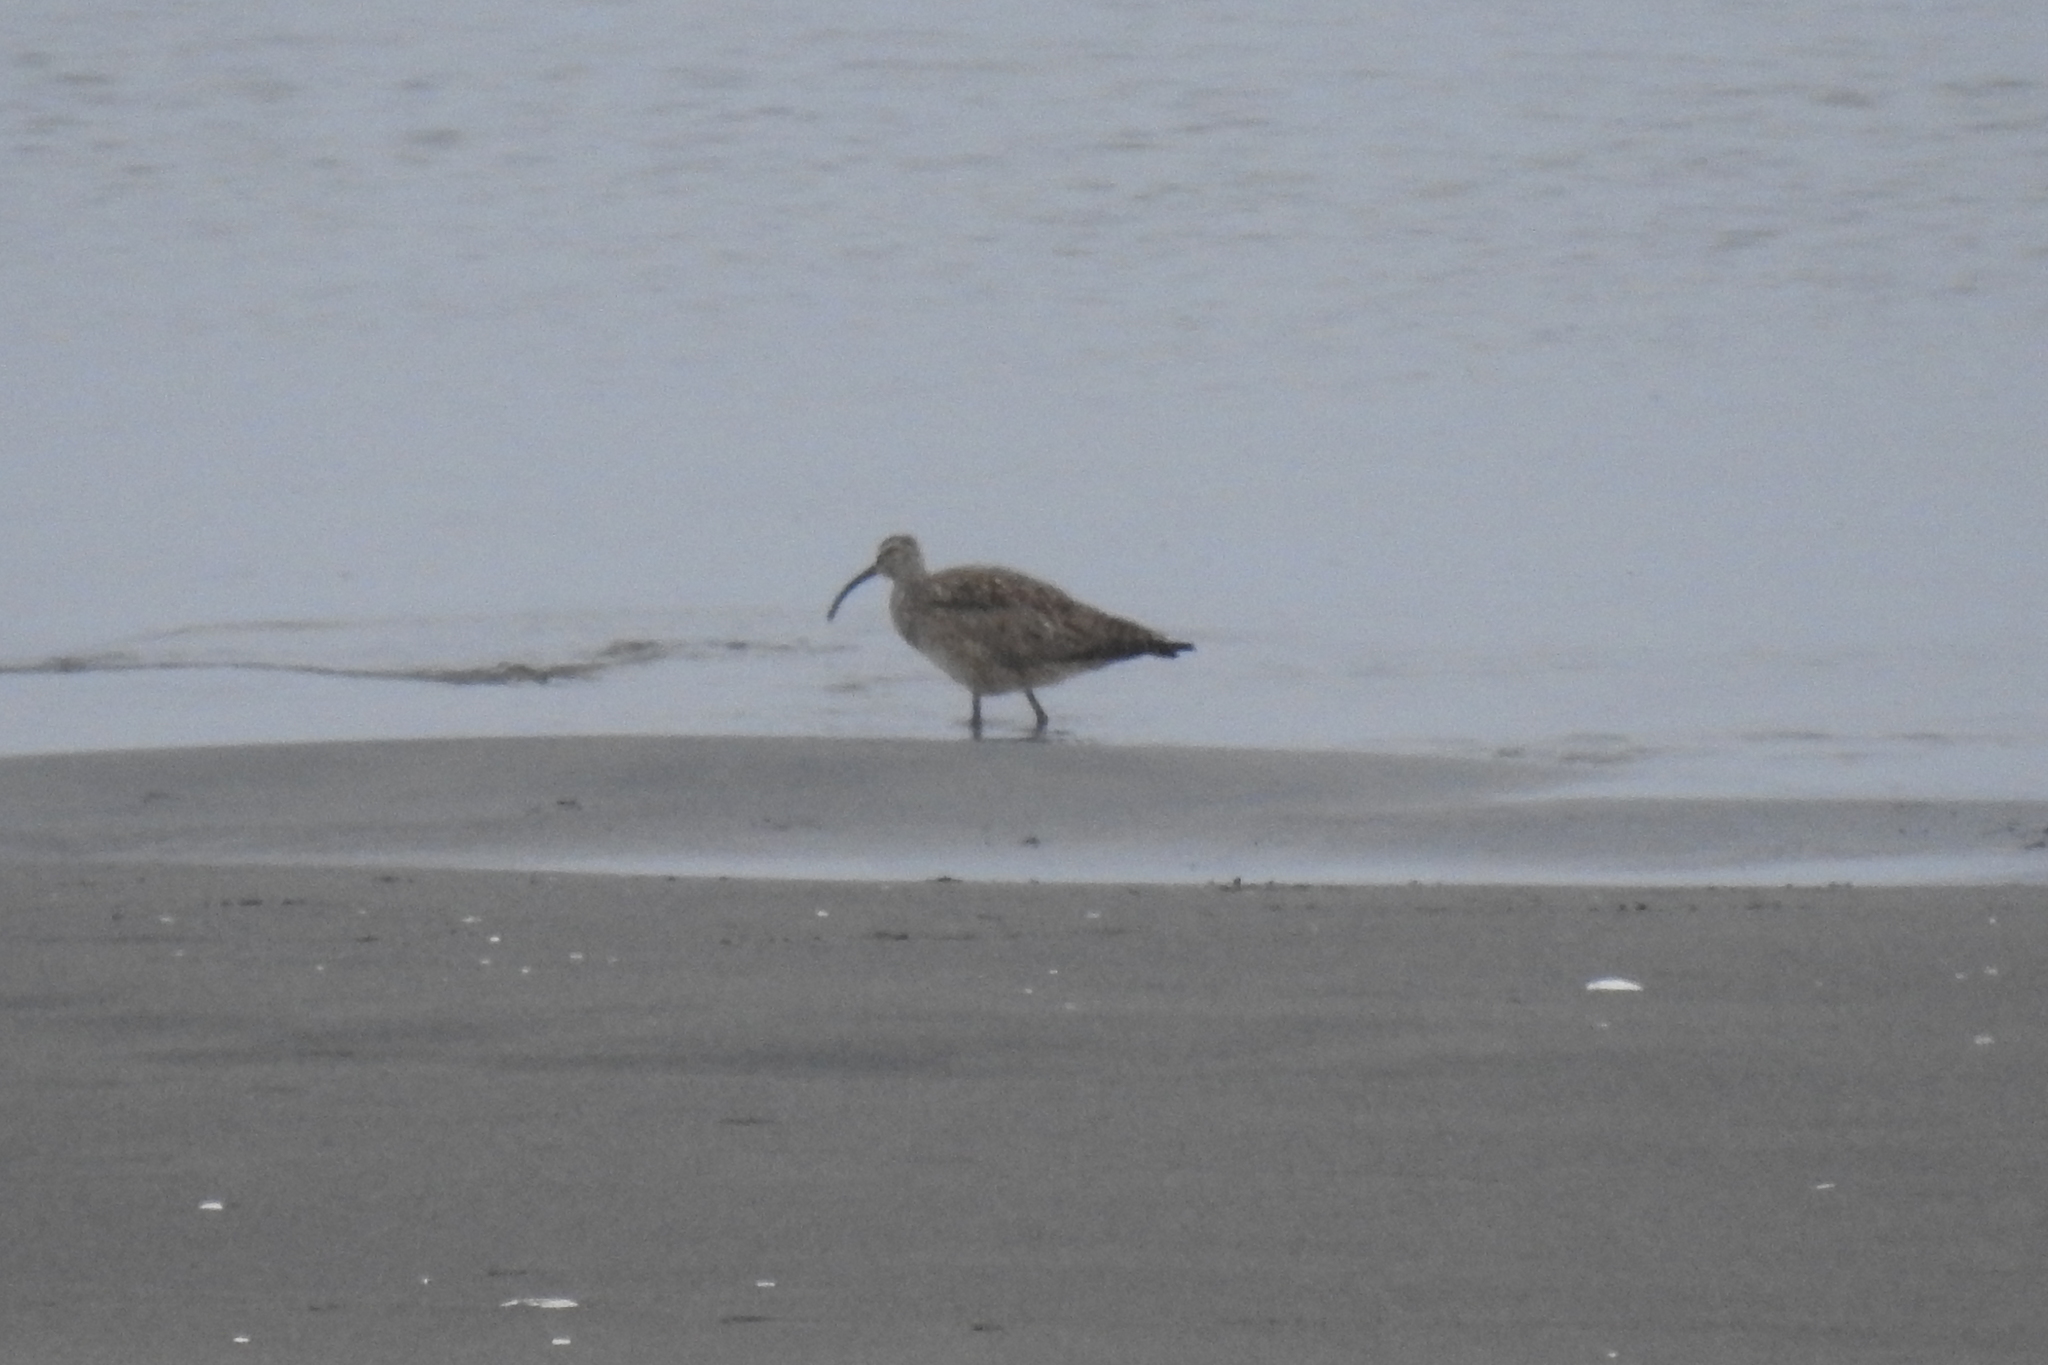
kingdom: Animalia
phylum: Chordata
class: Aves
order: Charadriiformes
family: Scolopacidae
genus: Numenius
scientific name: Numenius phaeopus
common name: Whimbrel
